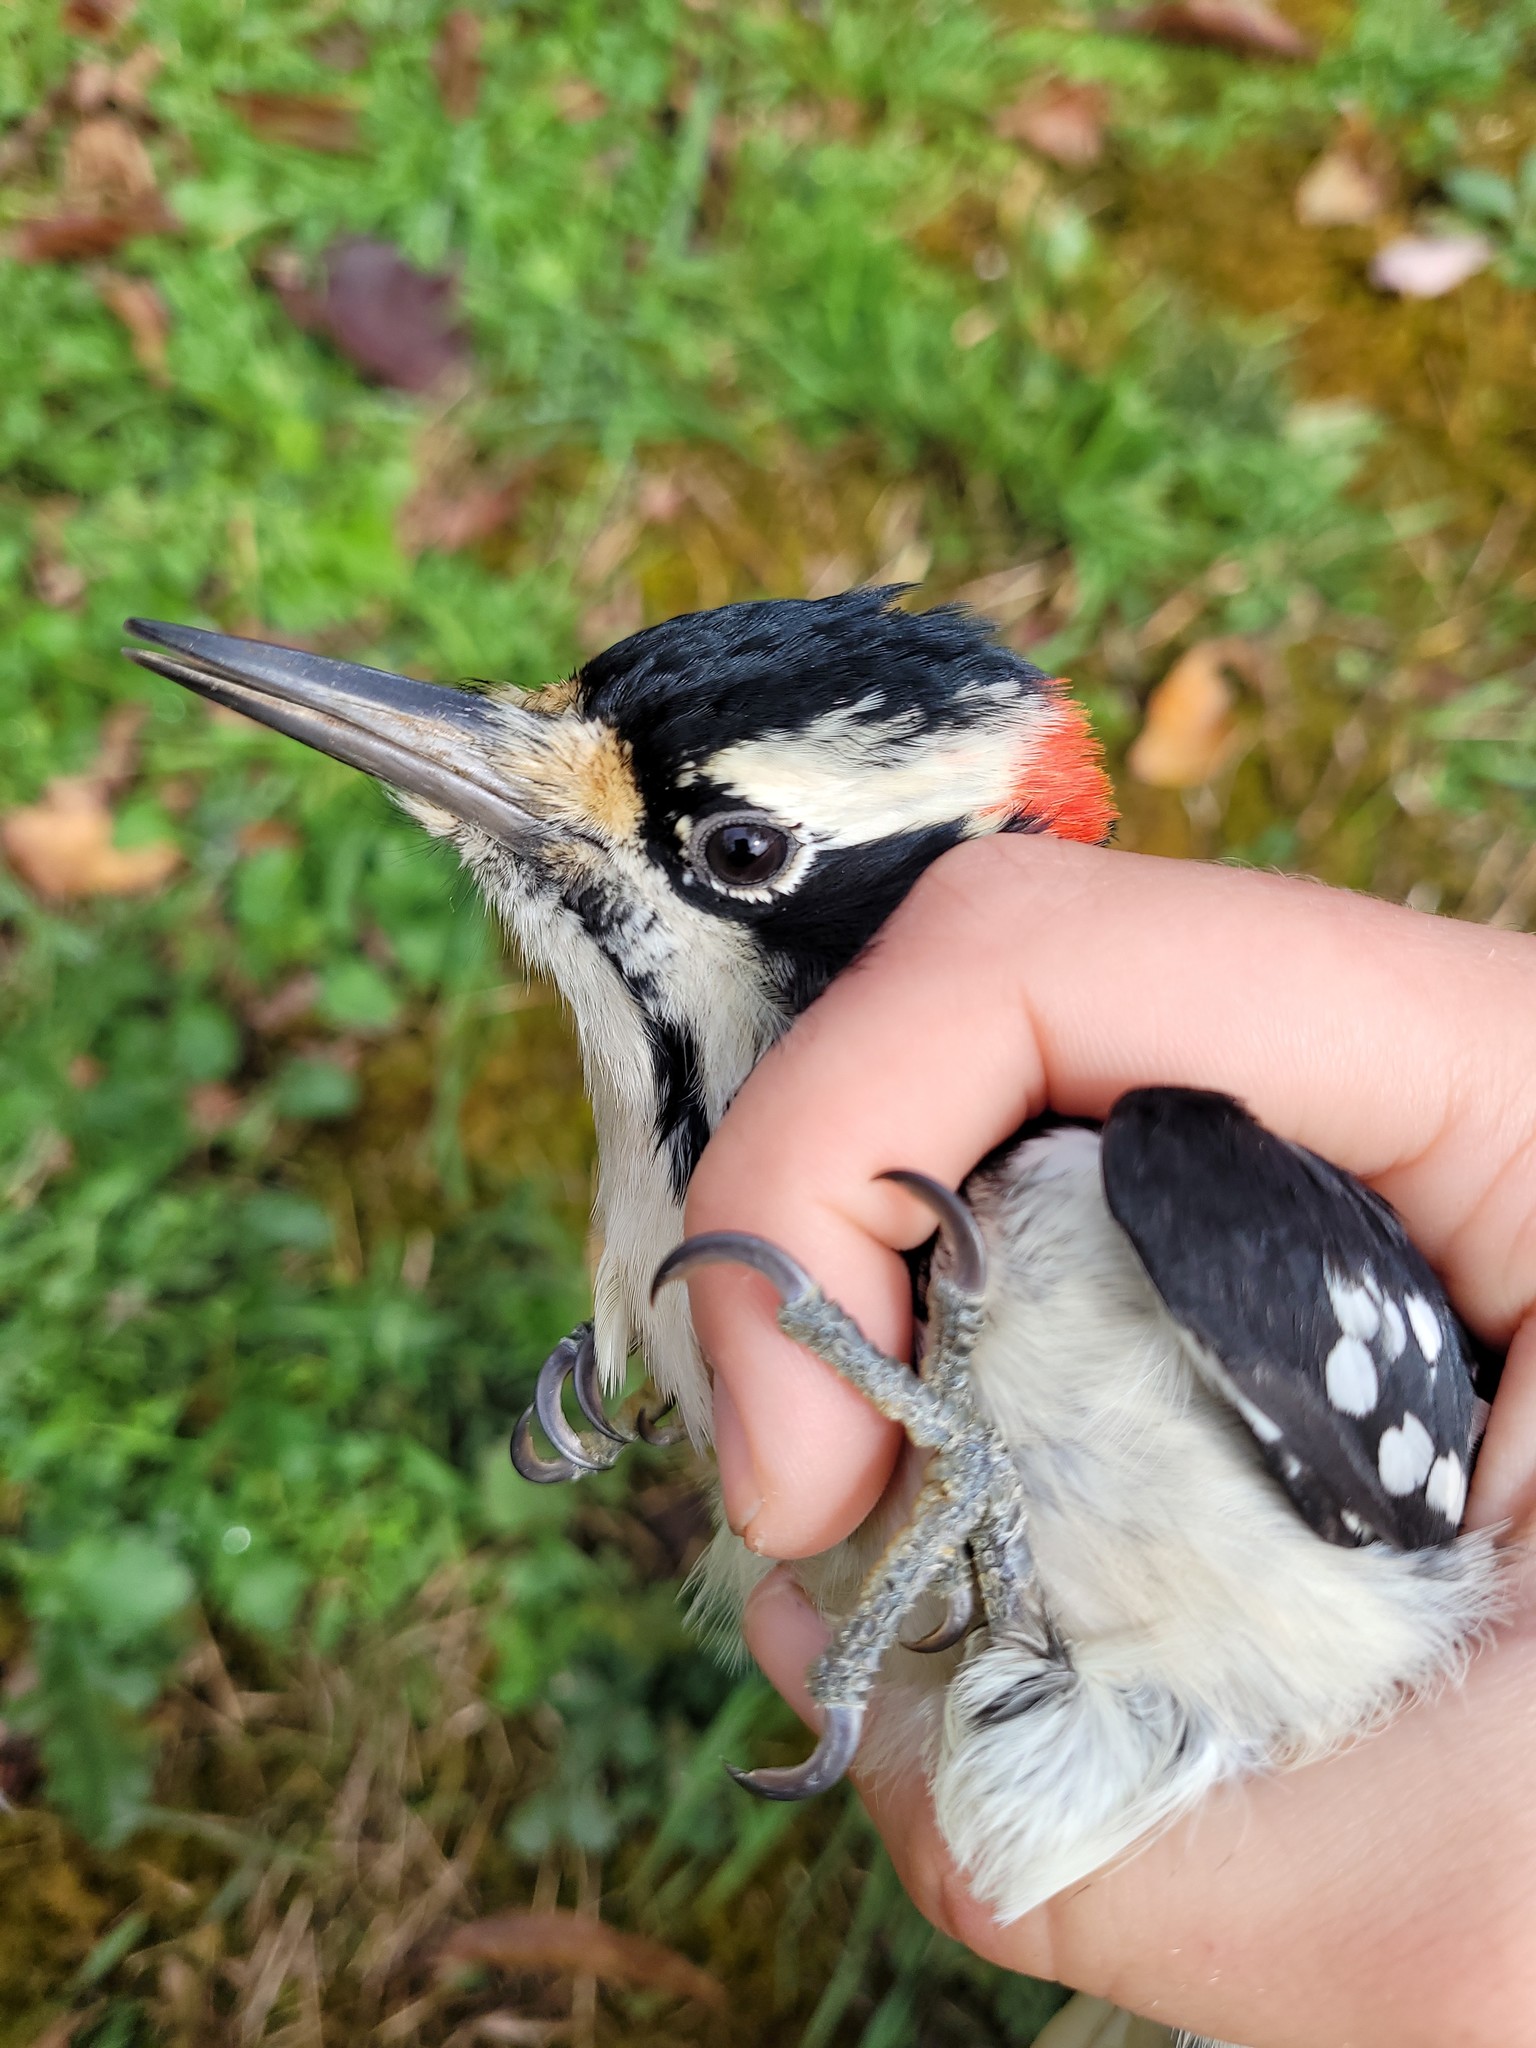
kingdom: Animalia
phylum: Chordata
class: Aves
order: Piciformes
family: Picidae
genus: Leuconotopicus
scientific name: Leuconotopicus villosus
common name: Hairy woodpecker
